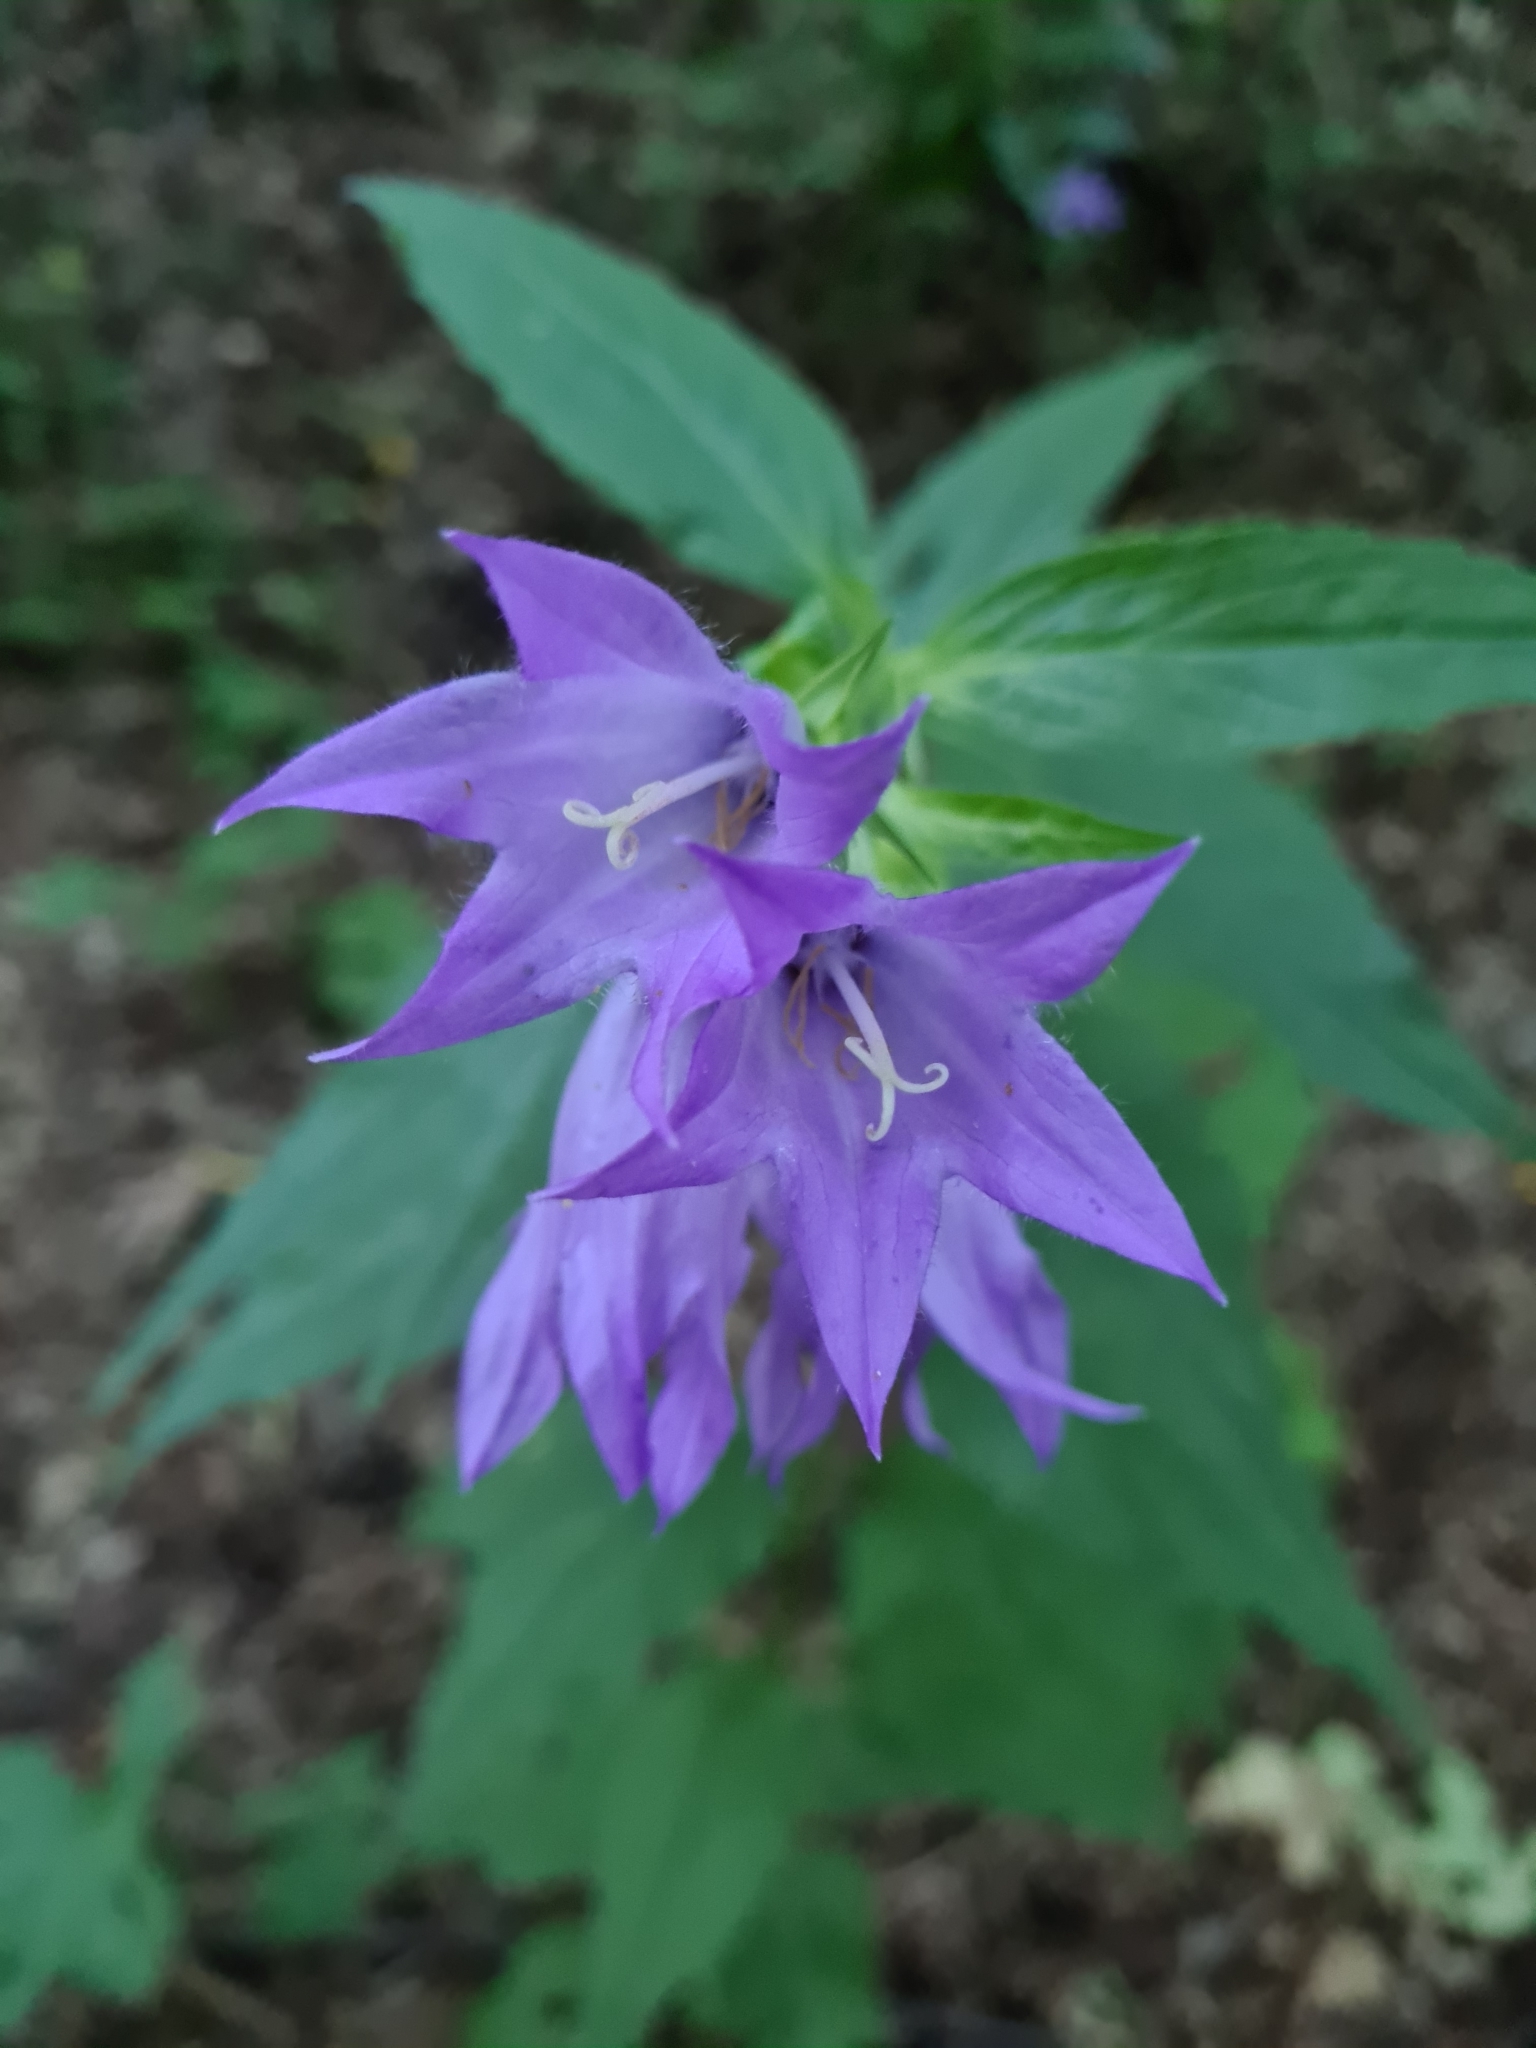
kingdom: Plantae
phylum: Tracheophyta
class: Magnoliopsida
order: Asterales
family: Campanulaceae
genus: Campanula
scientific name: Campanula latifolia
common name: Giant bellflower
